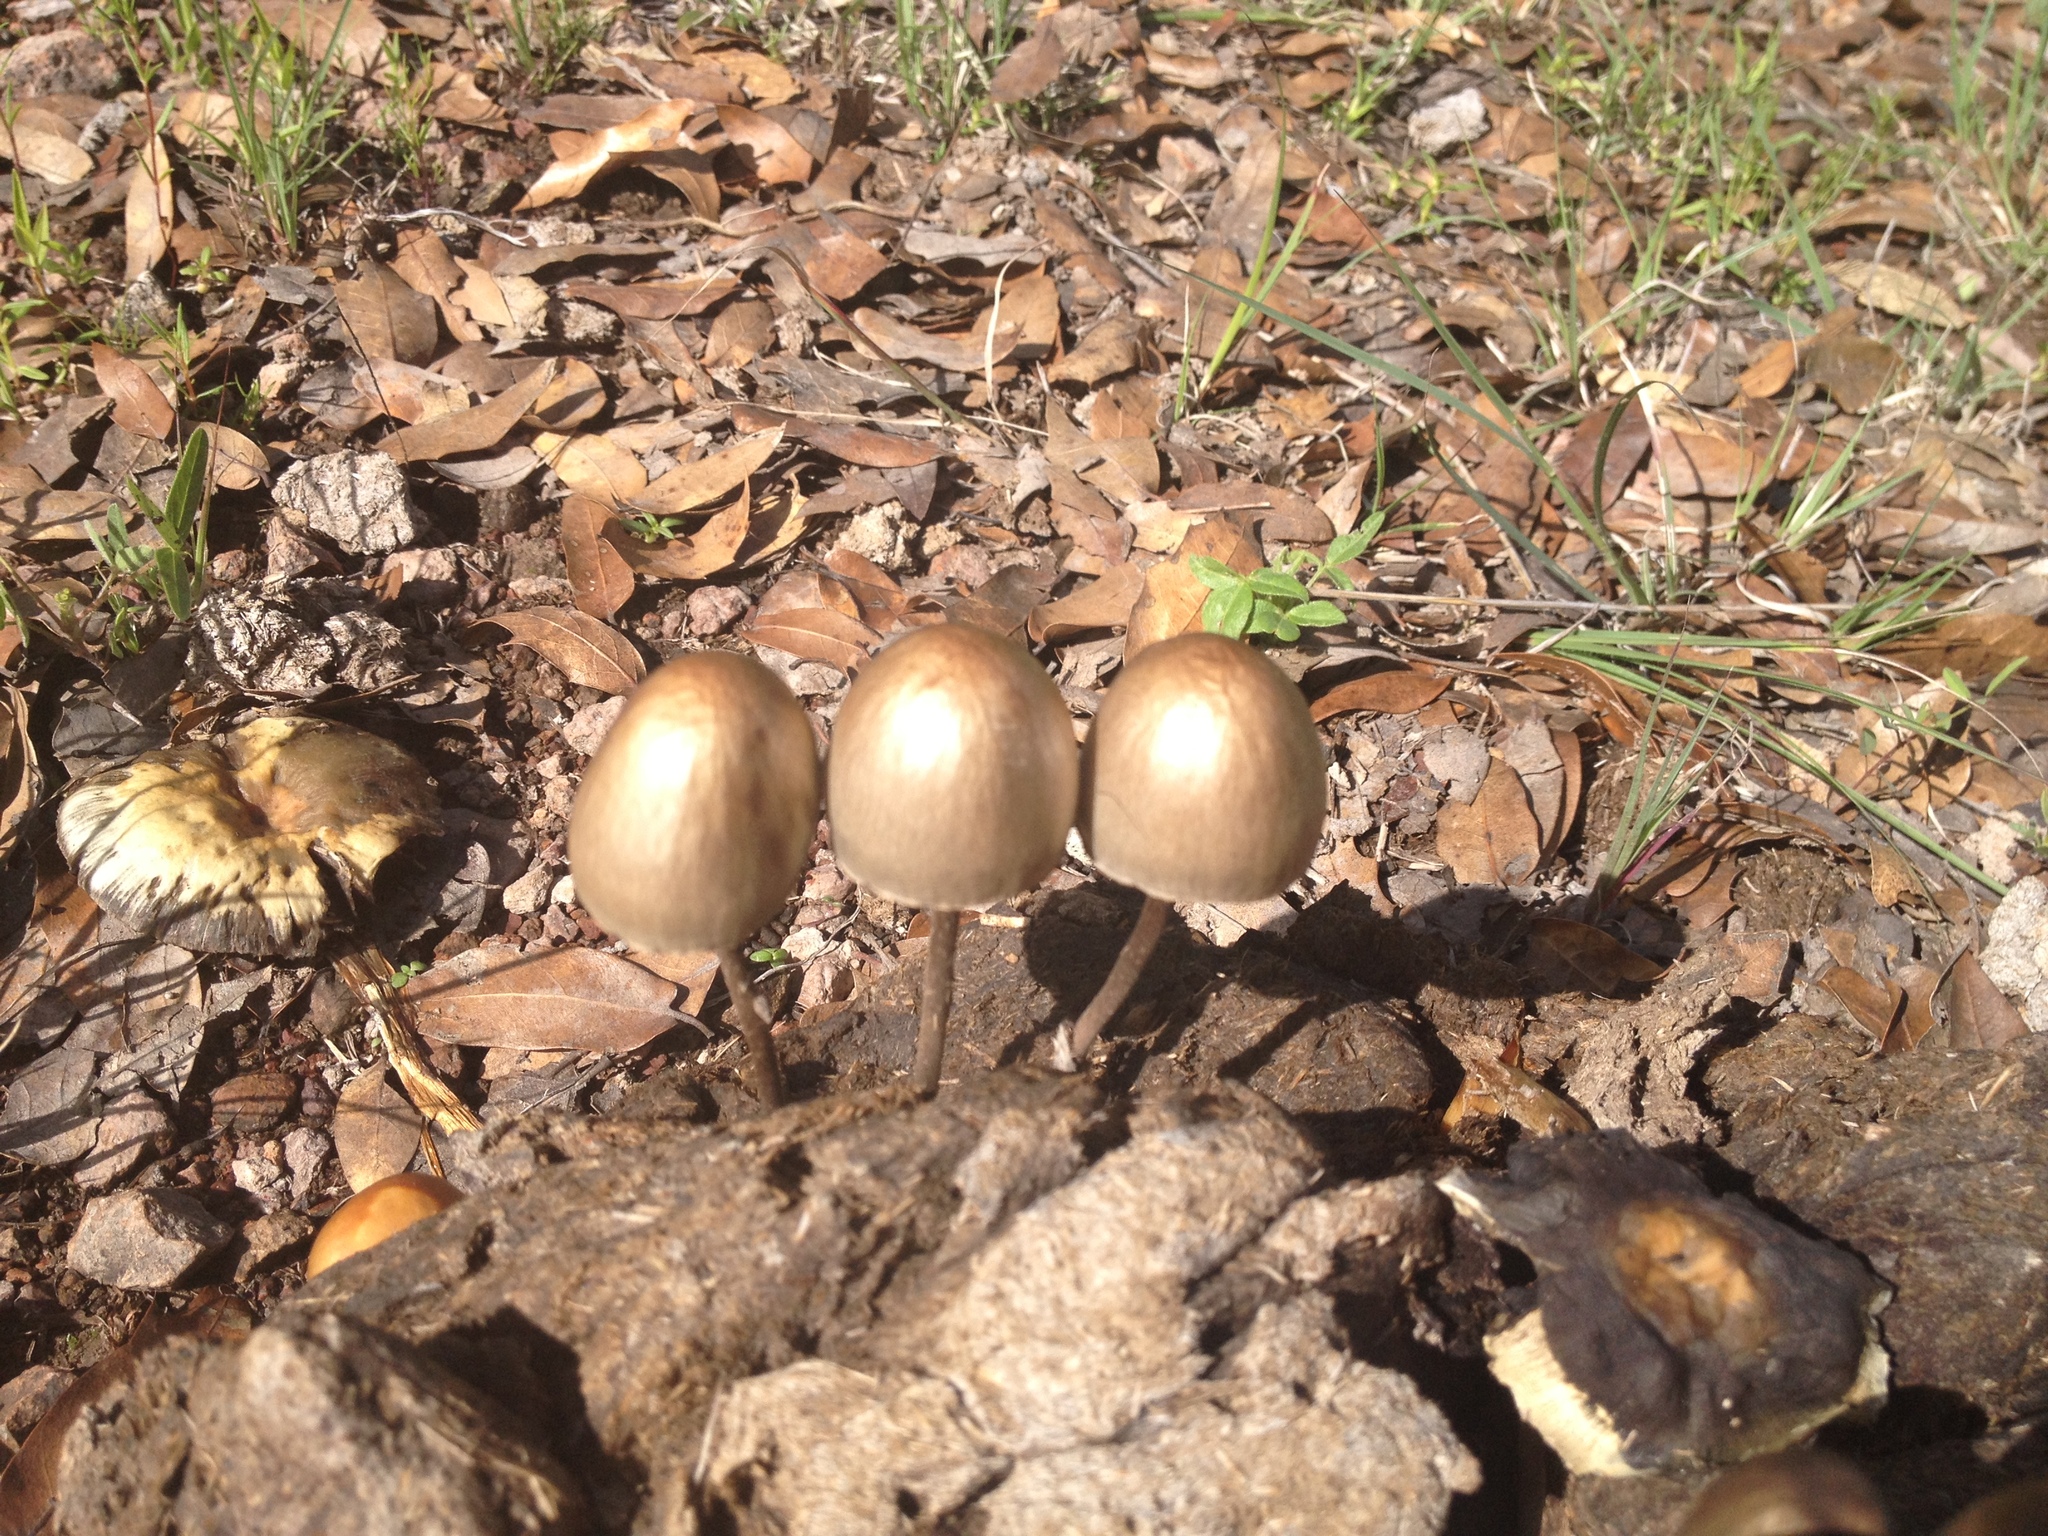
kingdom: Fungi
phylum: Basidiomycota
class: Agaricomycetes
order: Agaricales
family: Bolbitiaceae
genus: Panaeolus
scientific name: Panaeolus papilionaceus
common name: Petticoat mottlegill
